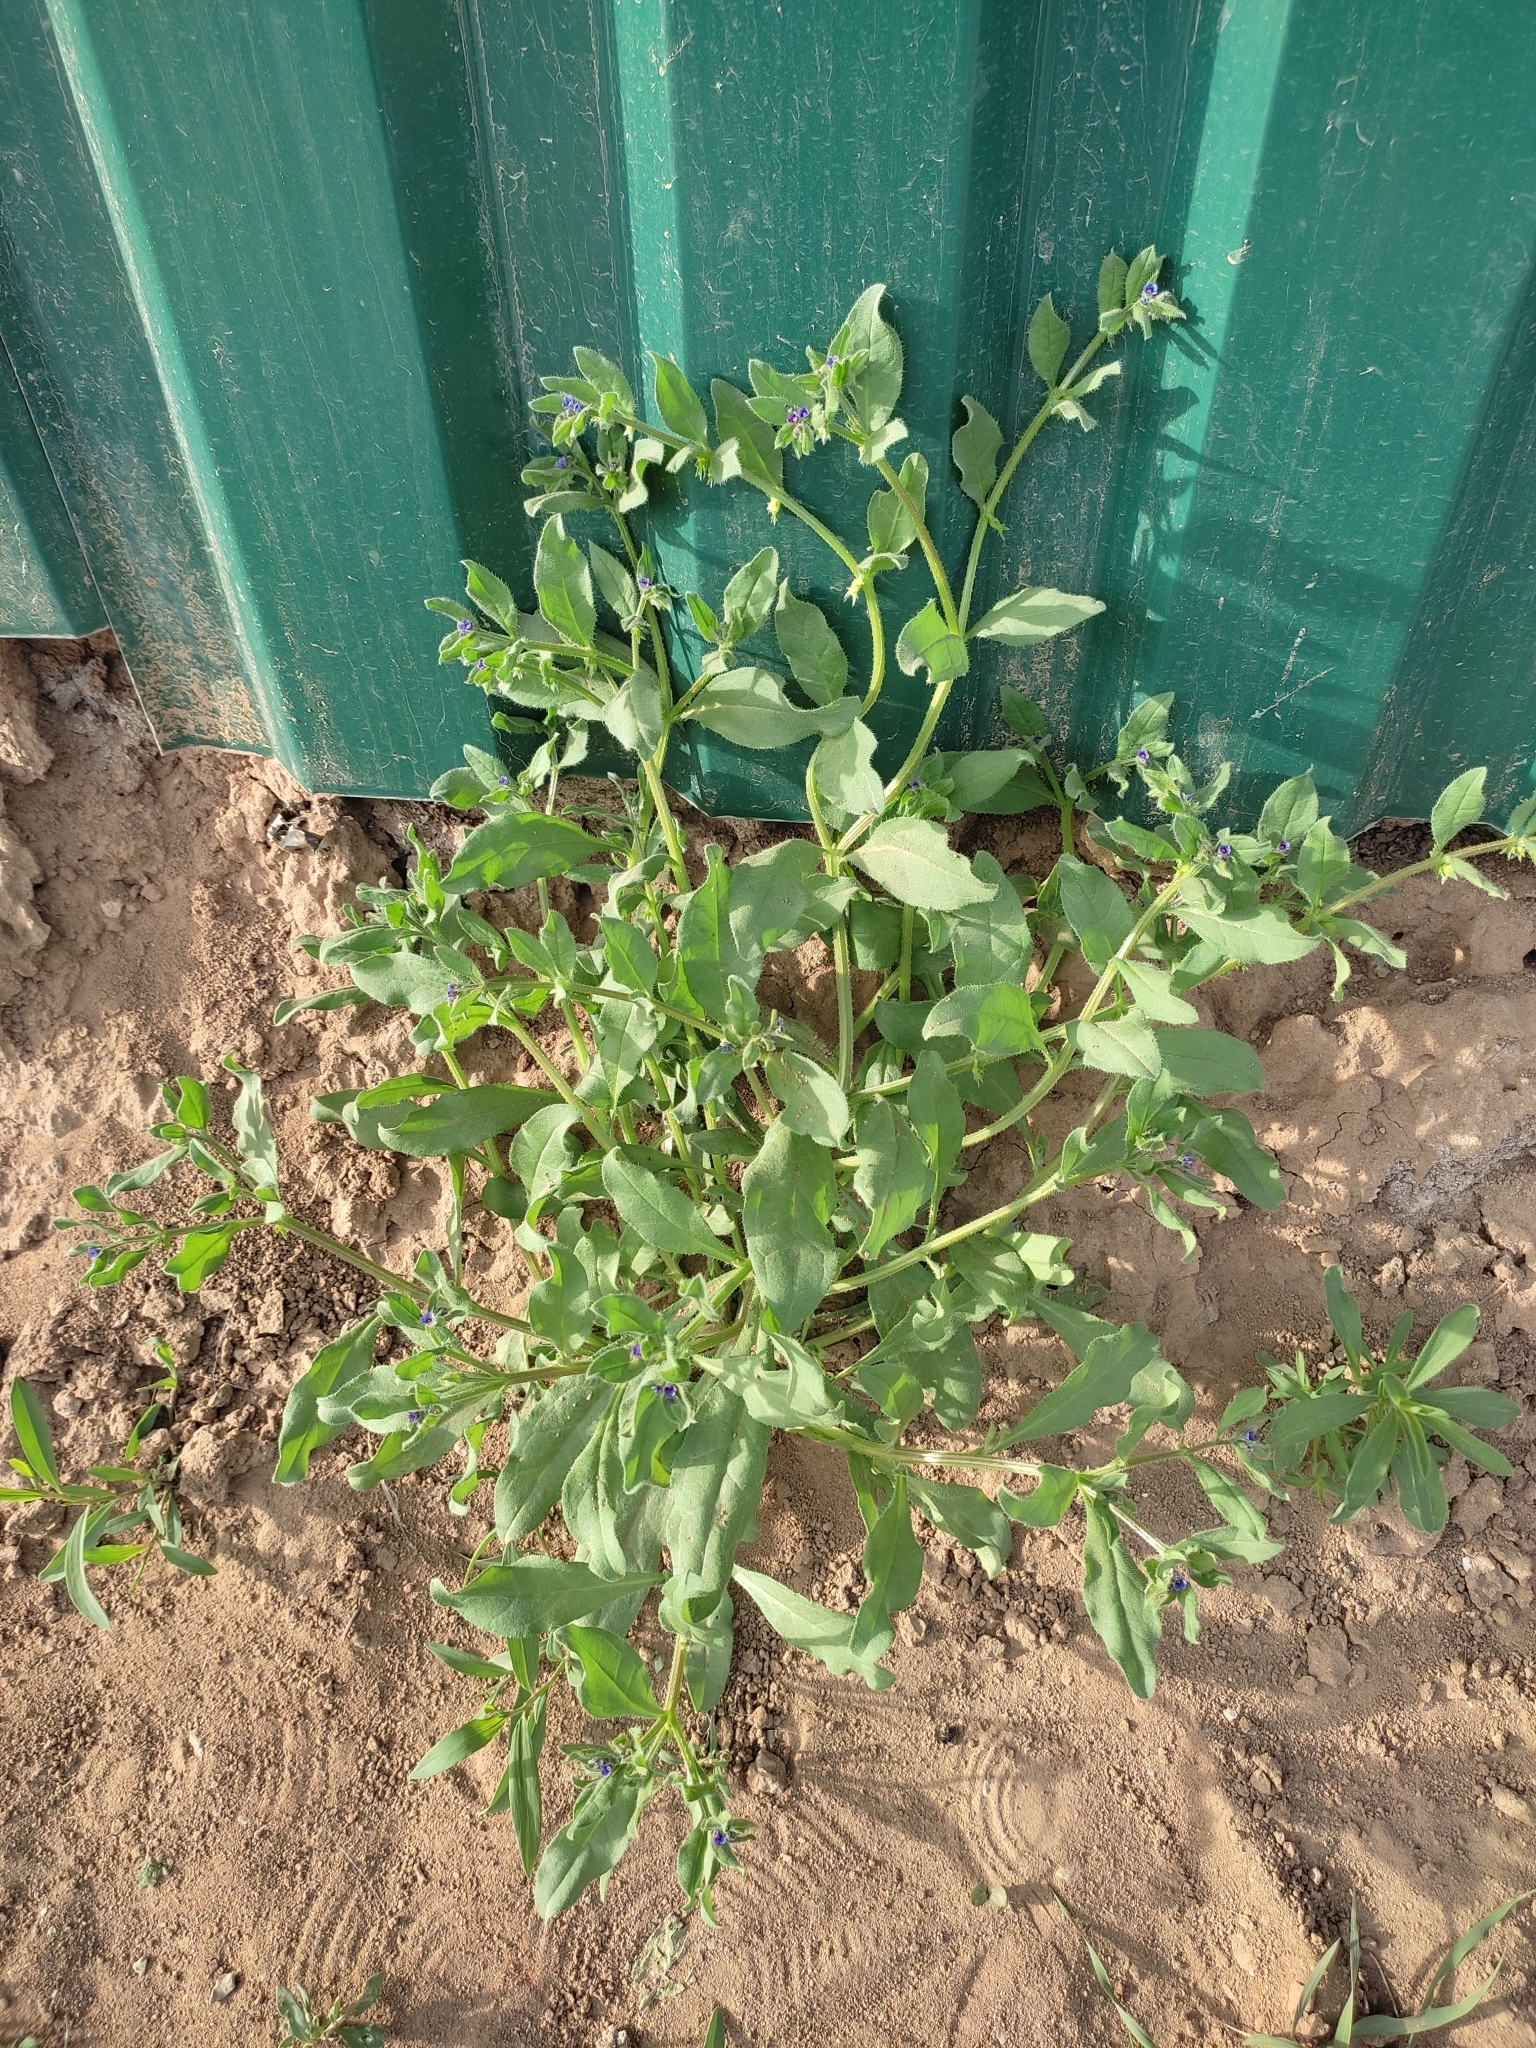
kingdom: Plantae
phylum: Tracheophyta
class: Magnoliopsida
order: Boraginales
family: Boraginaceae
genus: Asperugo
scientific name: Asperugo procumbens
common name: Madwort
